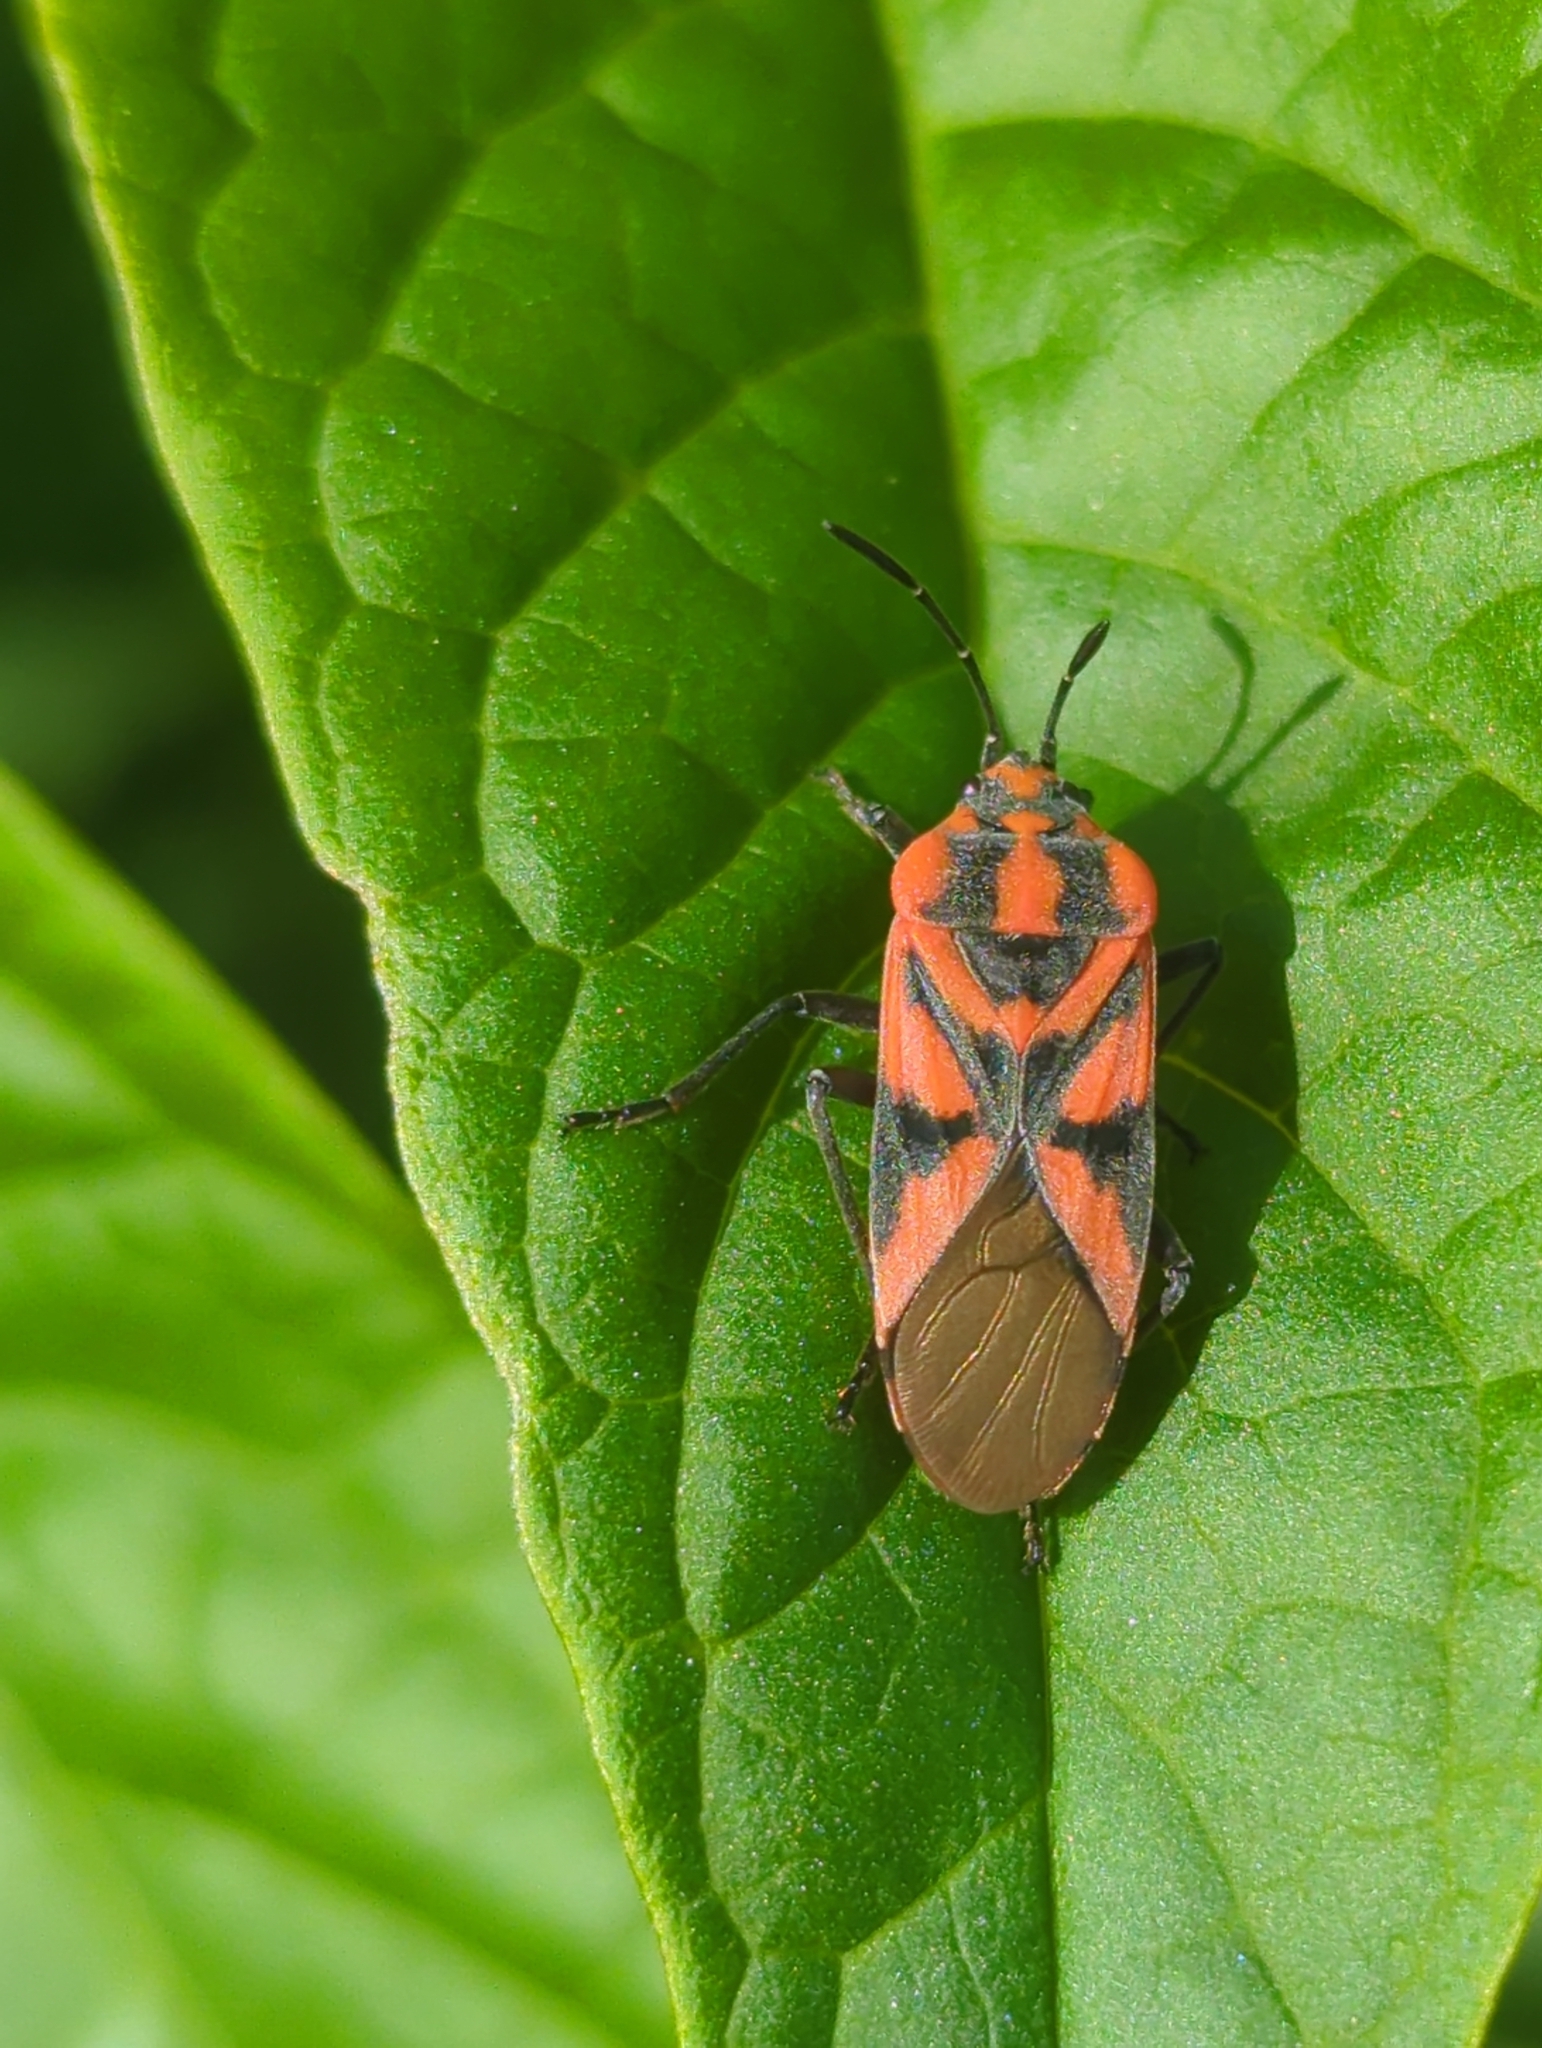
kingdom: Animalia
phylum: Arthropoda
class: Insecta
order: Hemiptera
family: Lygaeidae
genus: Spilostethus
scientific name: Spilostethus furcula
